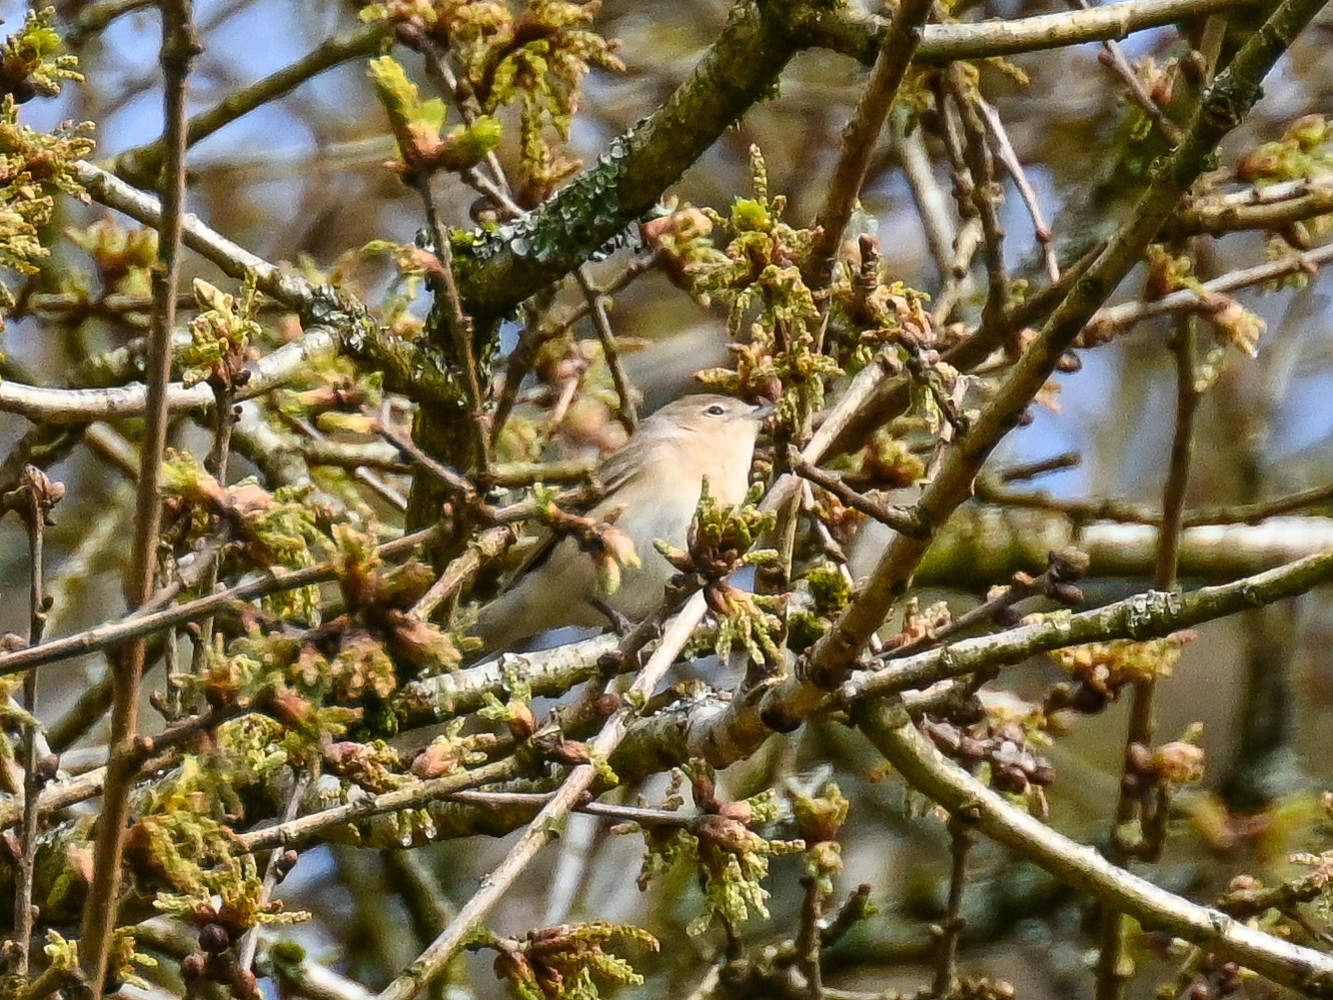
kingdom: Animalia
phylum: Chordata
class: Aves
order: Passeriformes
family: Sylviidae
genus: Sylvia
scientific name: Sylvia borin
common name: Garden warbler
